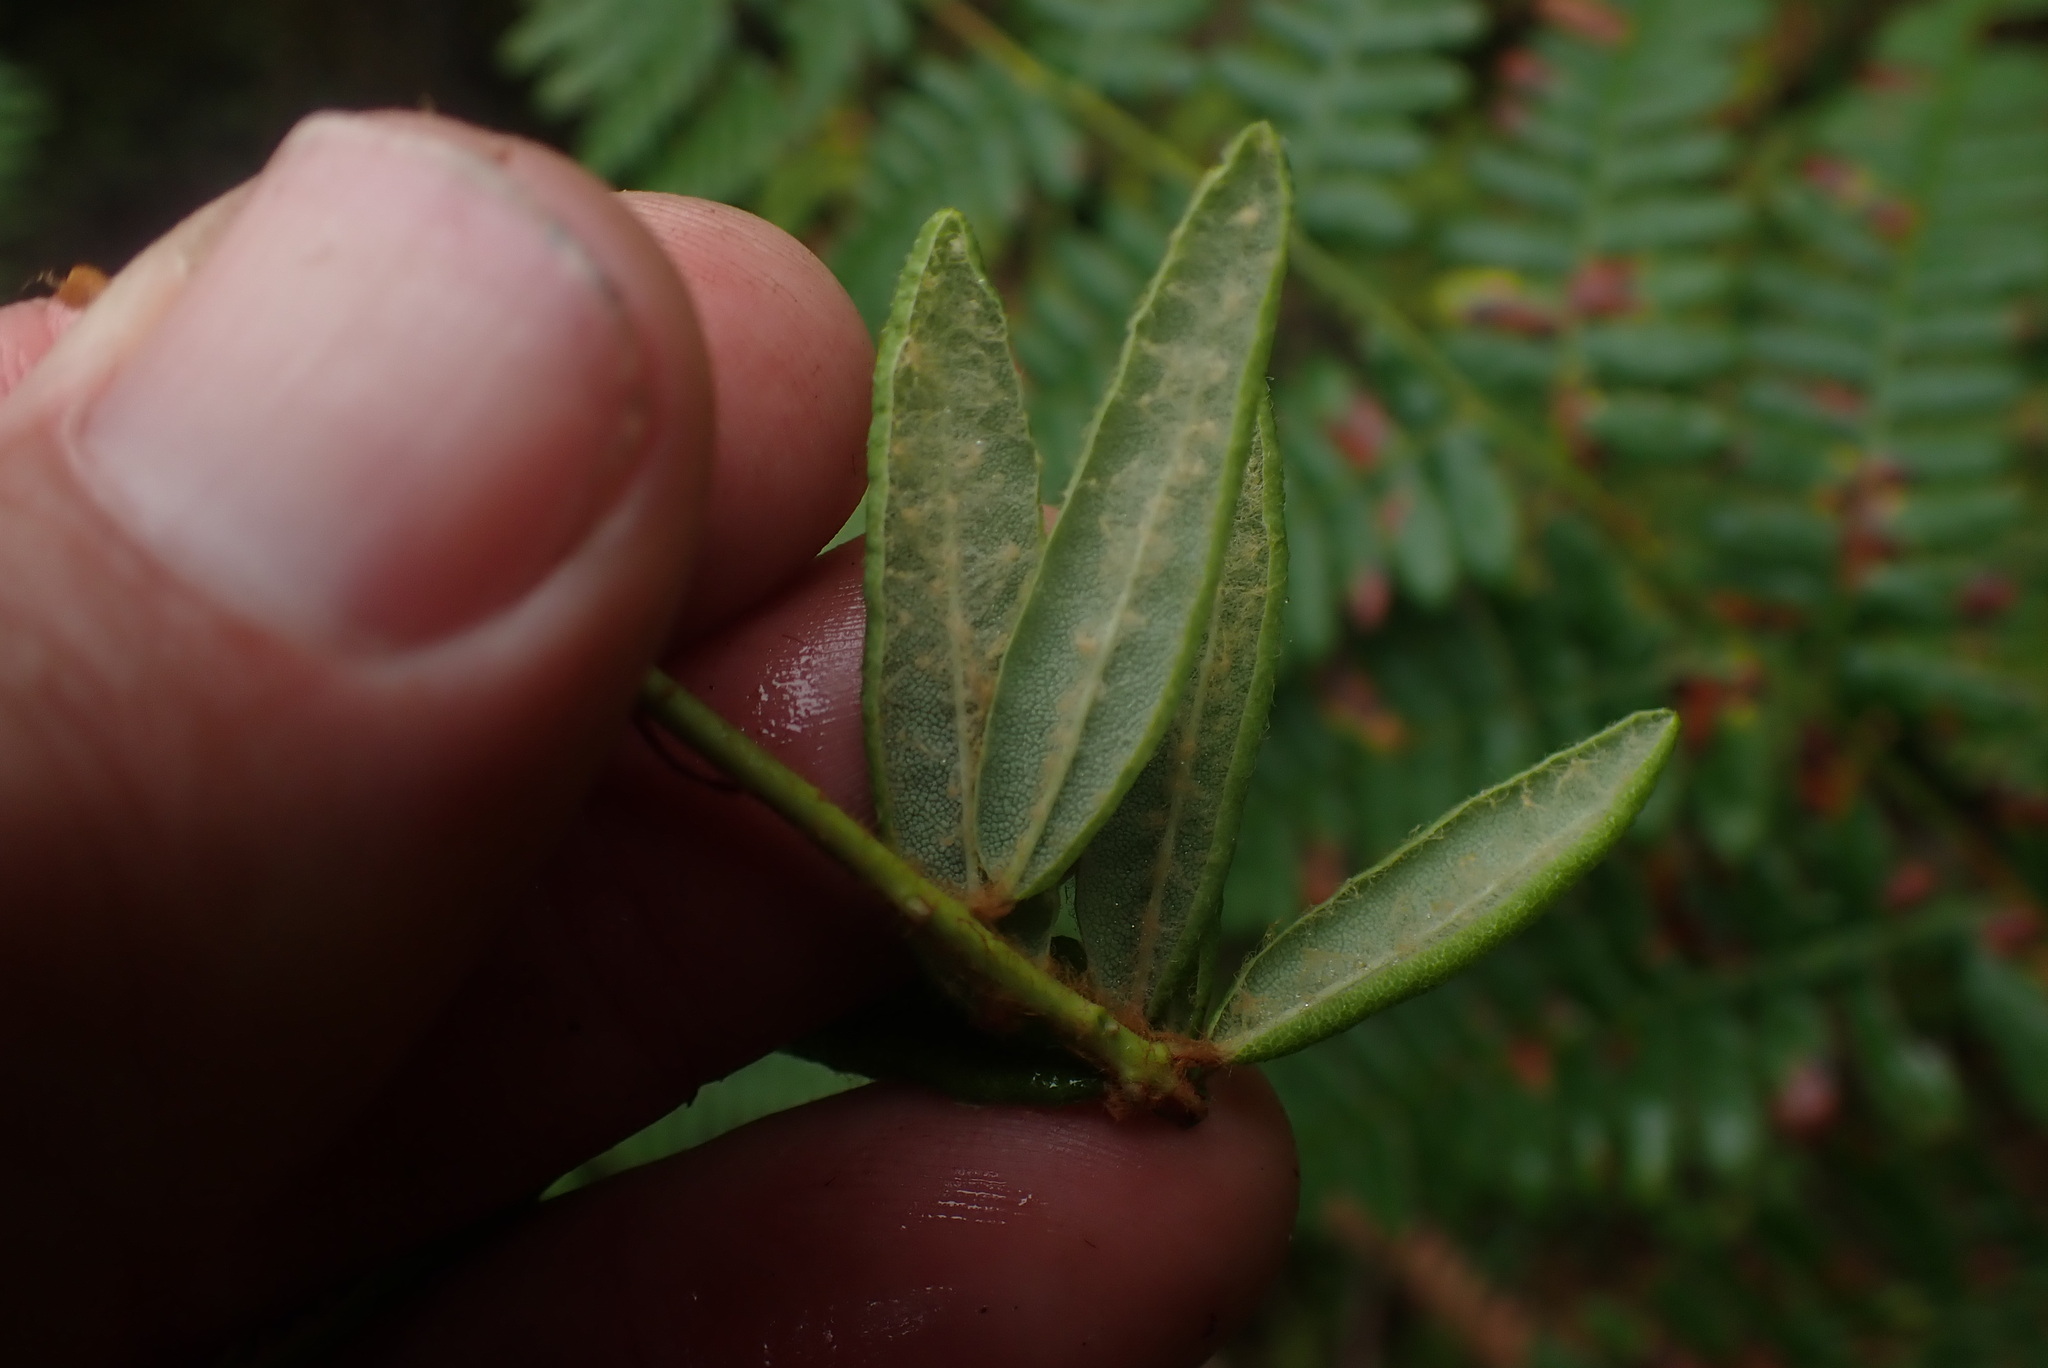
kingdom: Plantae
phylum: Tracheophyta
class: Magnoliopsida
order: Ericales
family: Ericaceae
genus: Rhododendron
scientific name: Rhododendron groenlandicum
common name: Bog labrador tea
